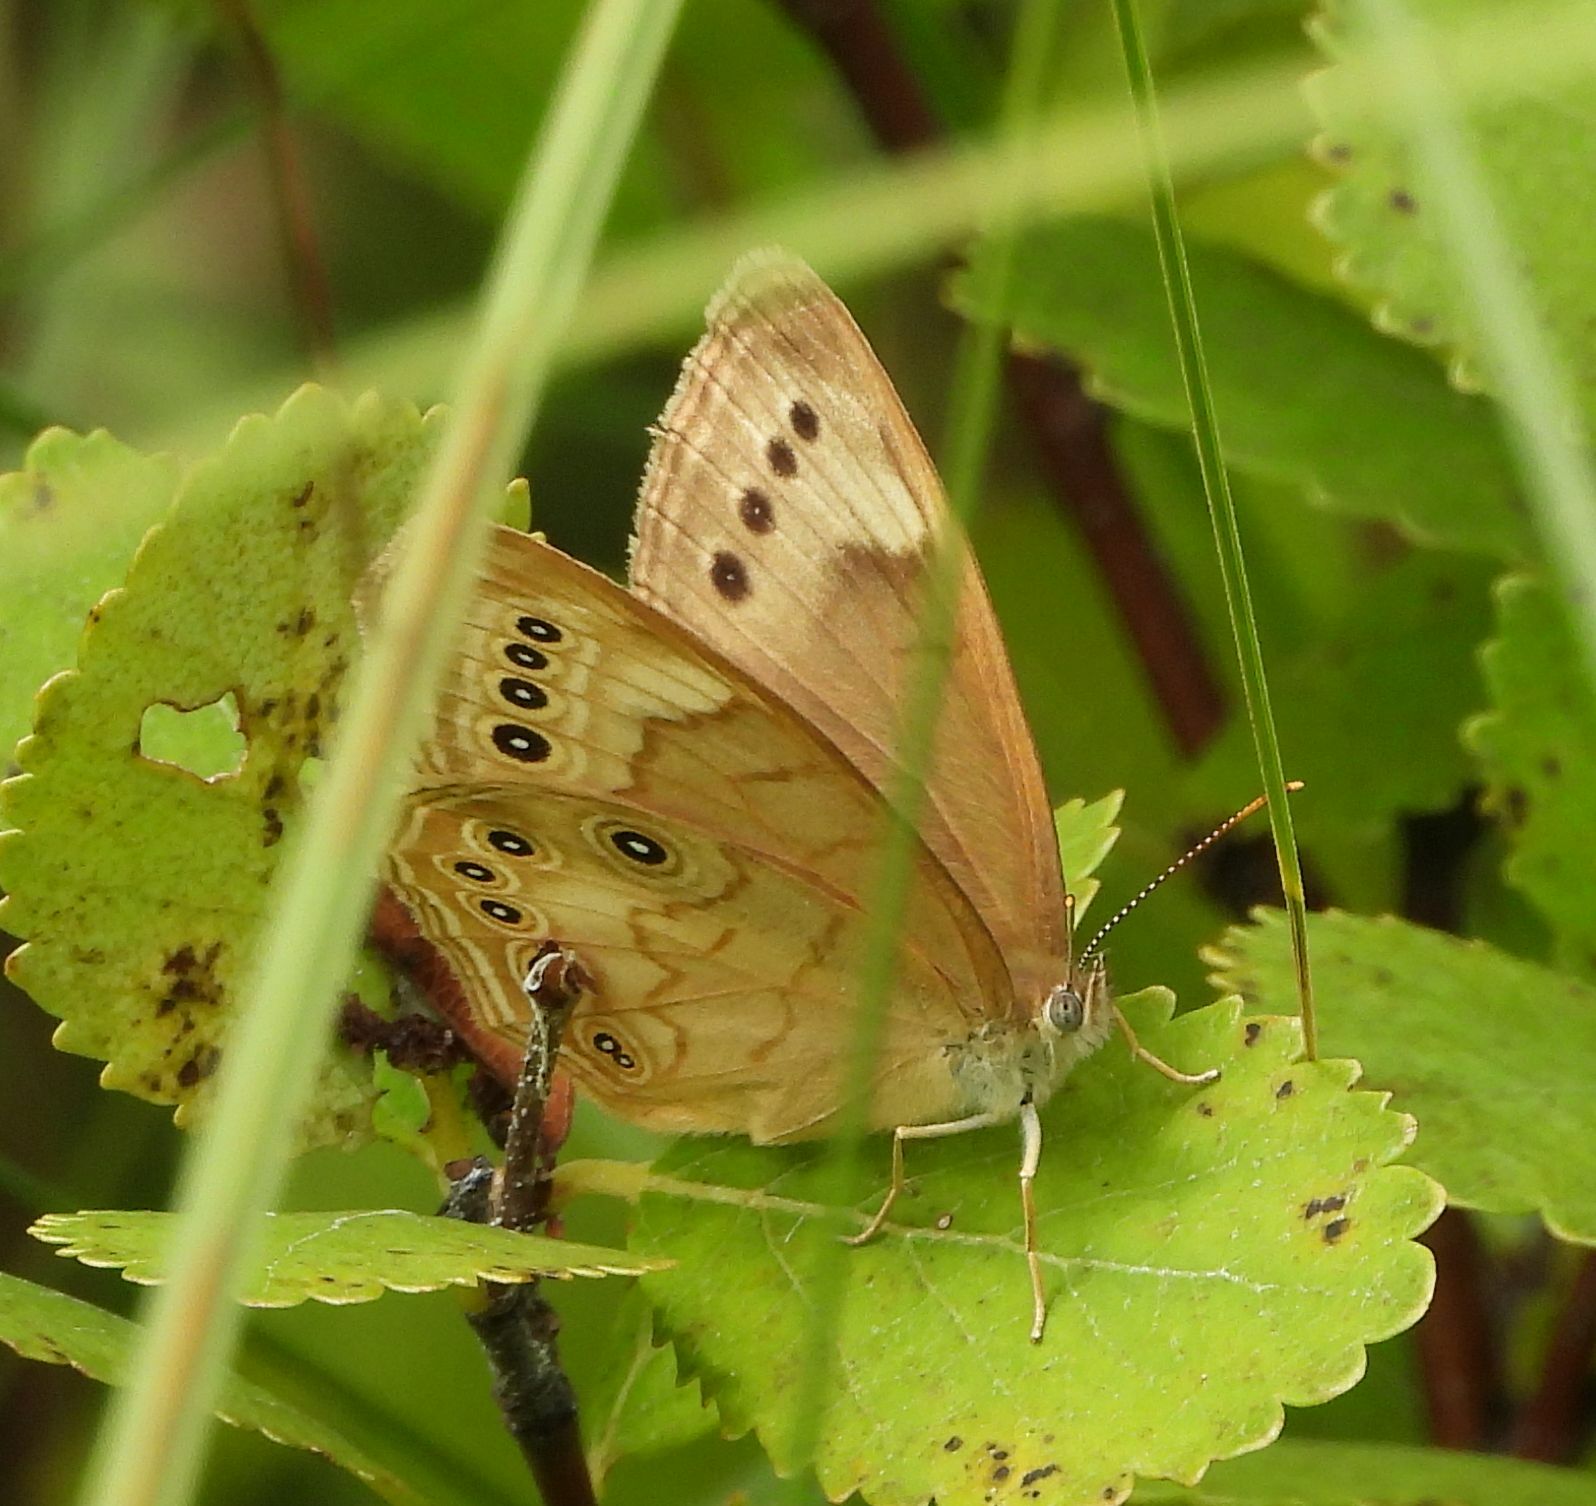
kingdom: Animalia
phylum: Arthropoda
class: Insecta
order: Lepidoptera
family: Nymphalidae
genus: Lethe
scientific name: Lethe eurydice
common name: Eyed brown
